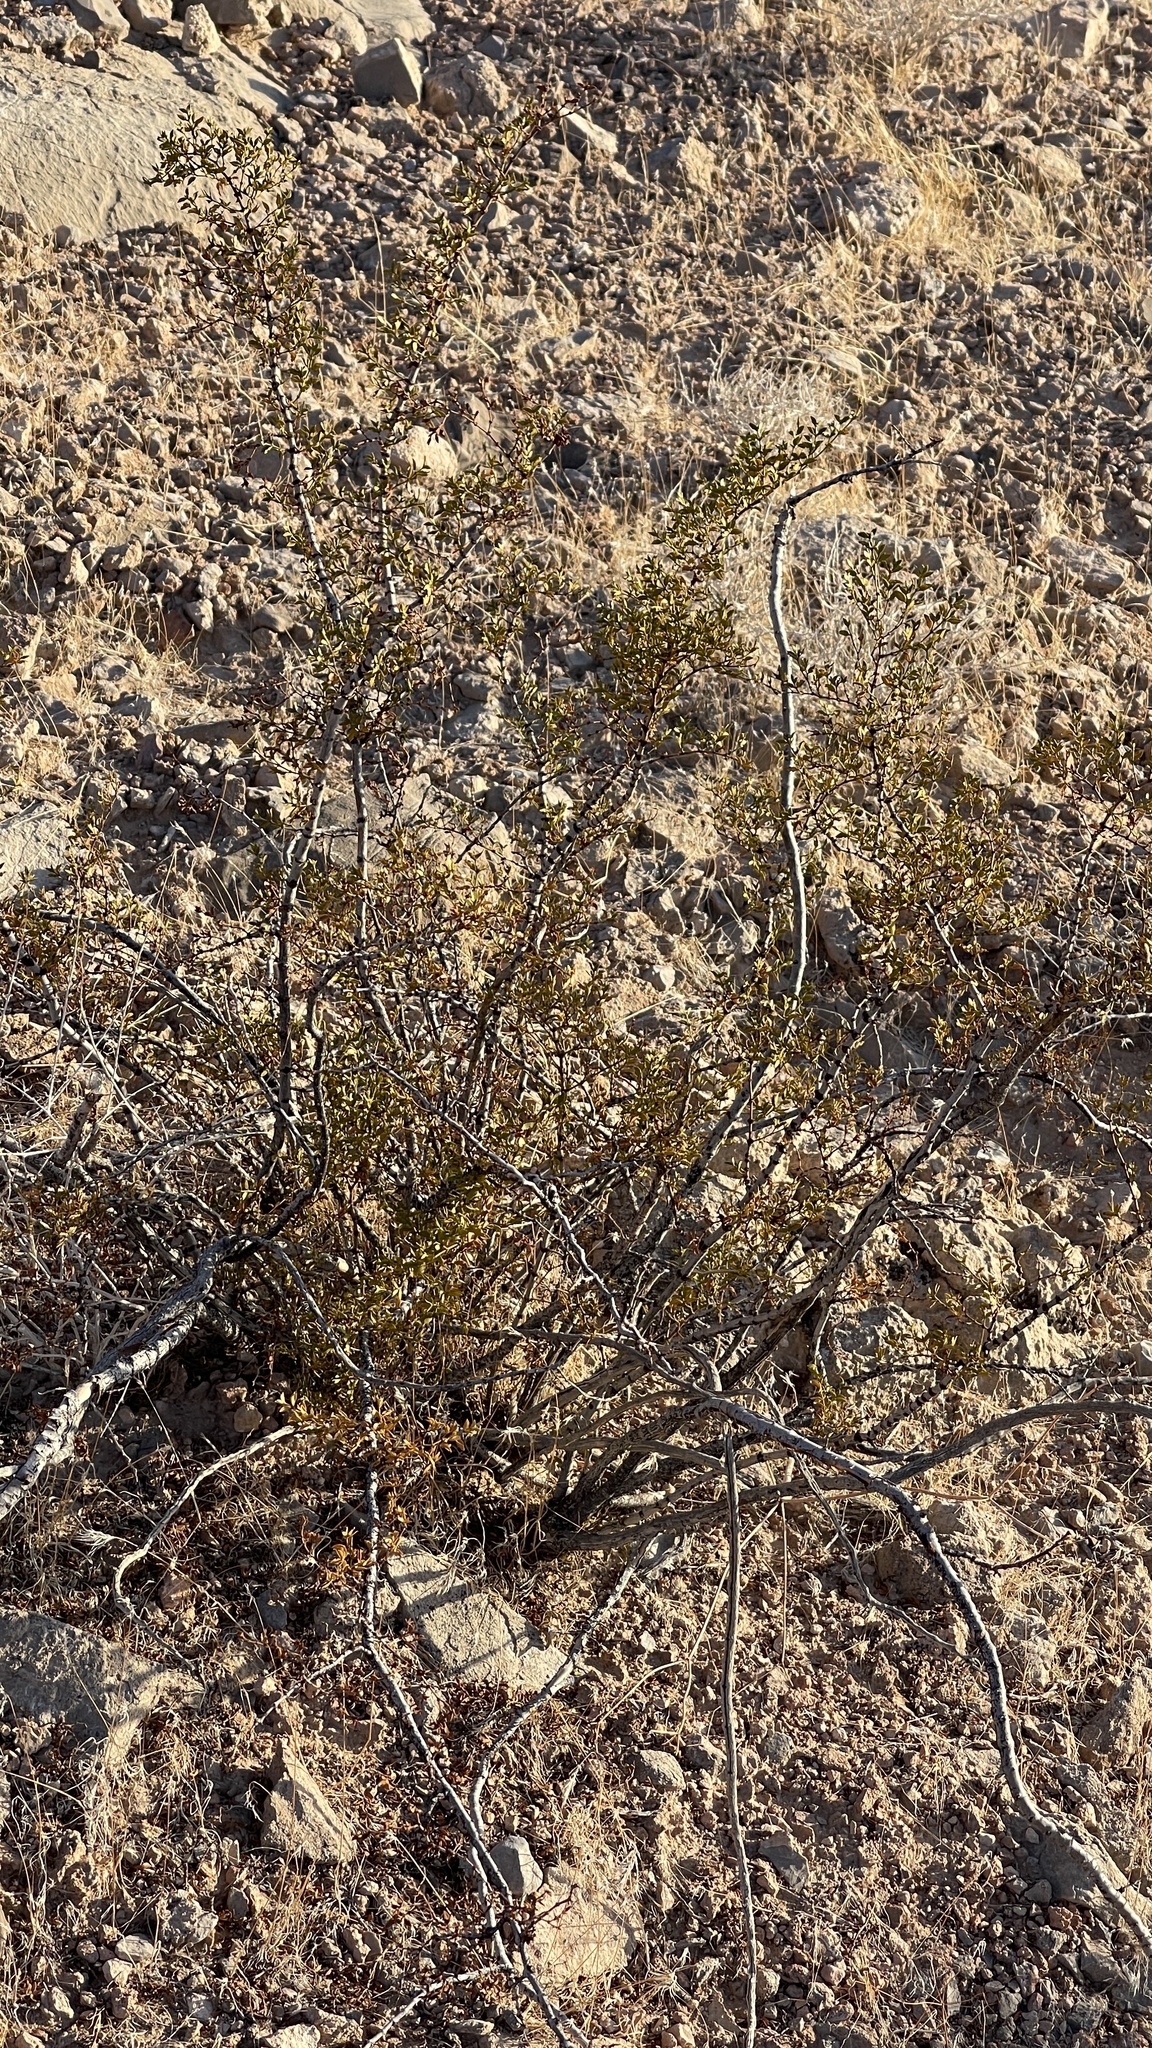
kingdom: Plantae
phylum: Tracheophyta
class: Magnoliopsida
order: Zygophyllales
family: Zygophyllaceae
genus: Larrea
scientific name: Larrea tridentata
